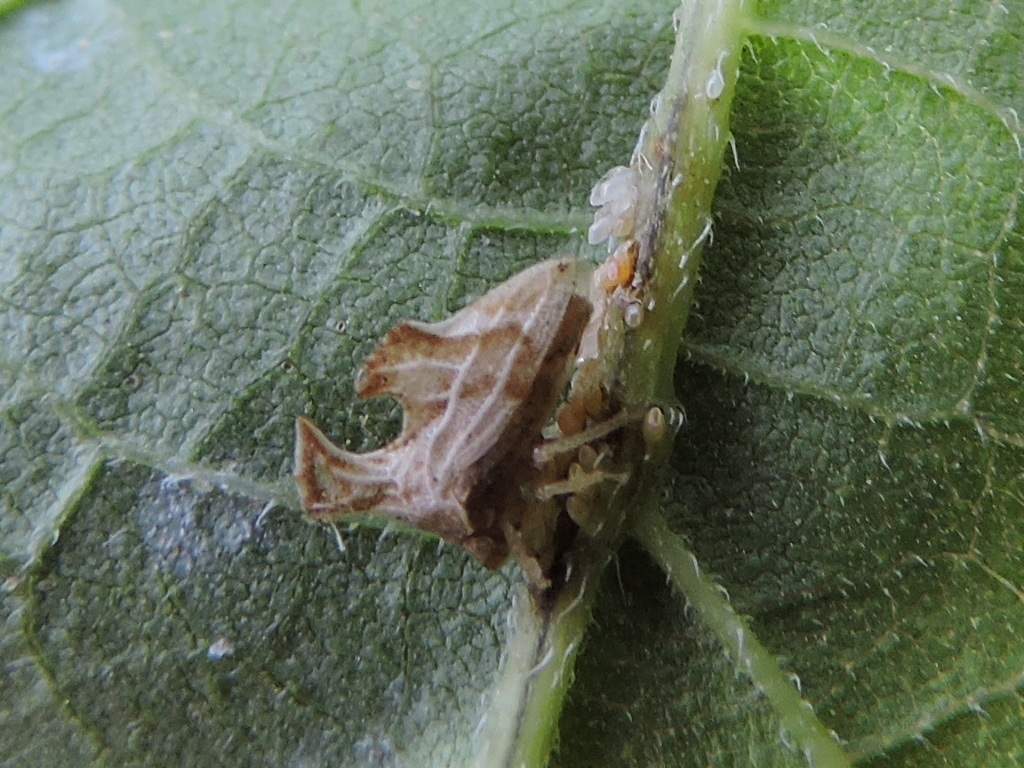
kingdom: Animalia
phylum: Arthropoda
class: Insecta
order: Hemiptera
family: Membracidae
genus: Entylia
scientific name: Entylia carinata
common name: Keeled treehopper
